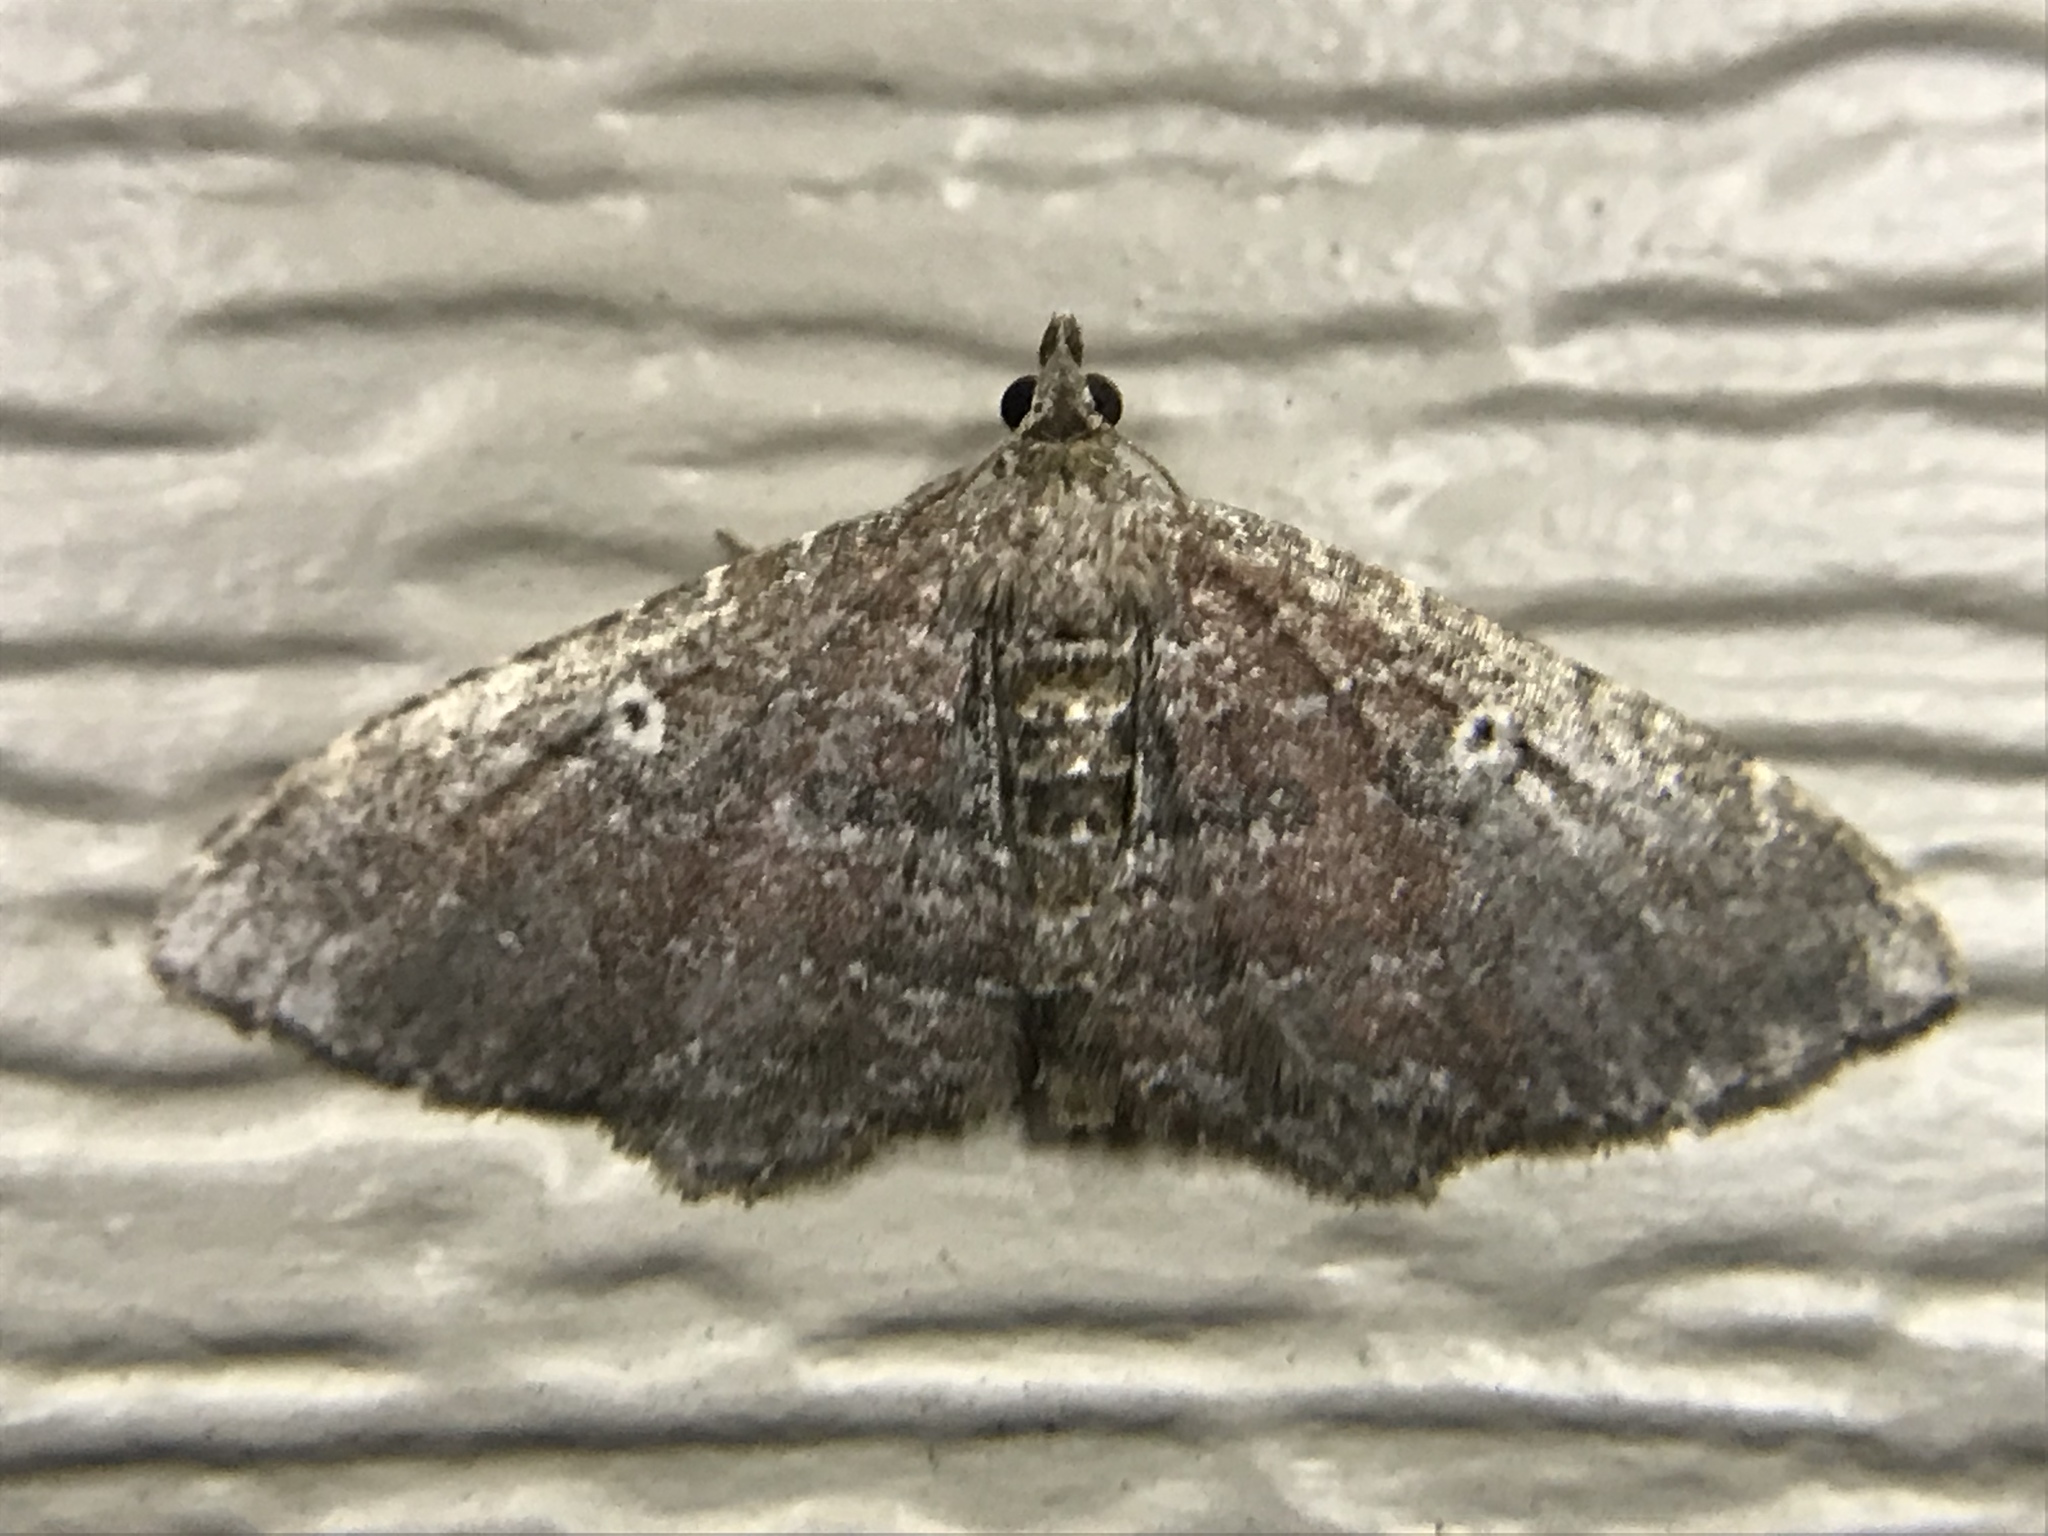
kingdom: Animalia
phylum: Arthropoda
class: Insecta
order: Lepidoptera
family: Geometridae
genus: Orthonama
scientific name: Orthonama obstipata
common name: The gem
